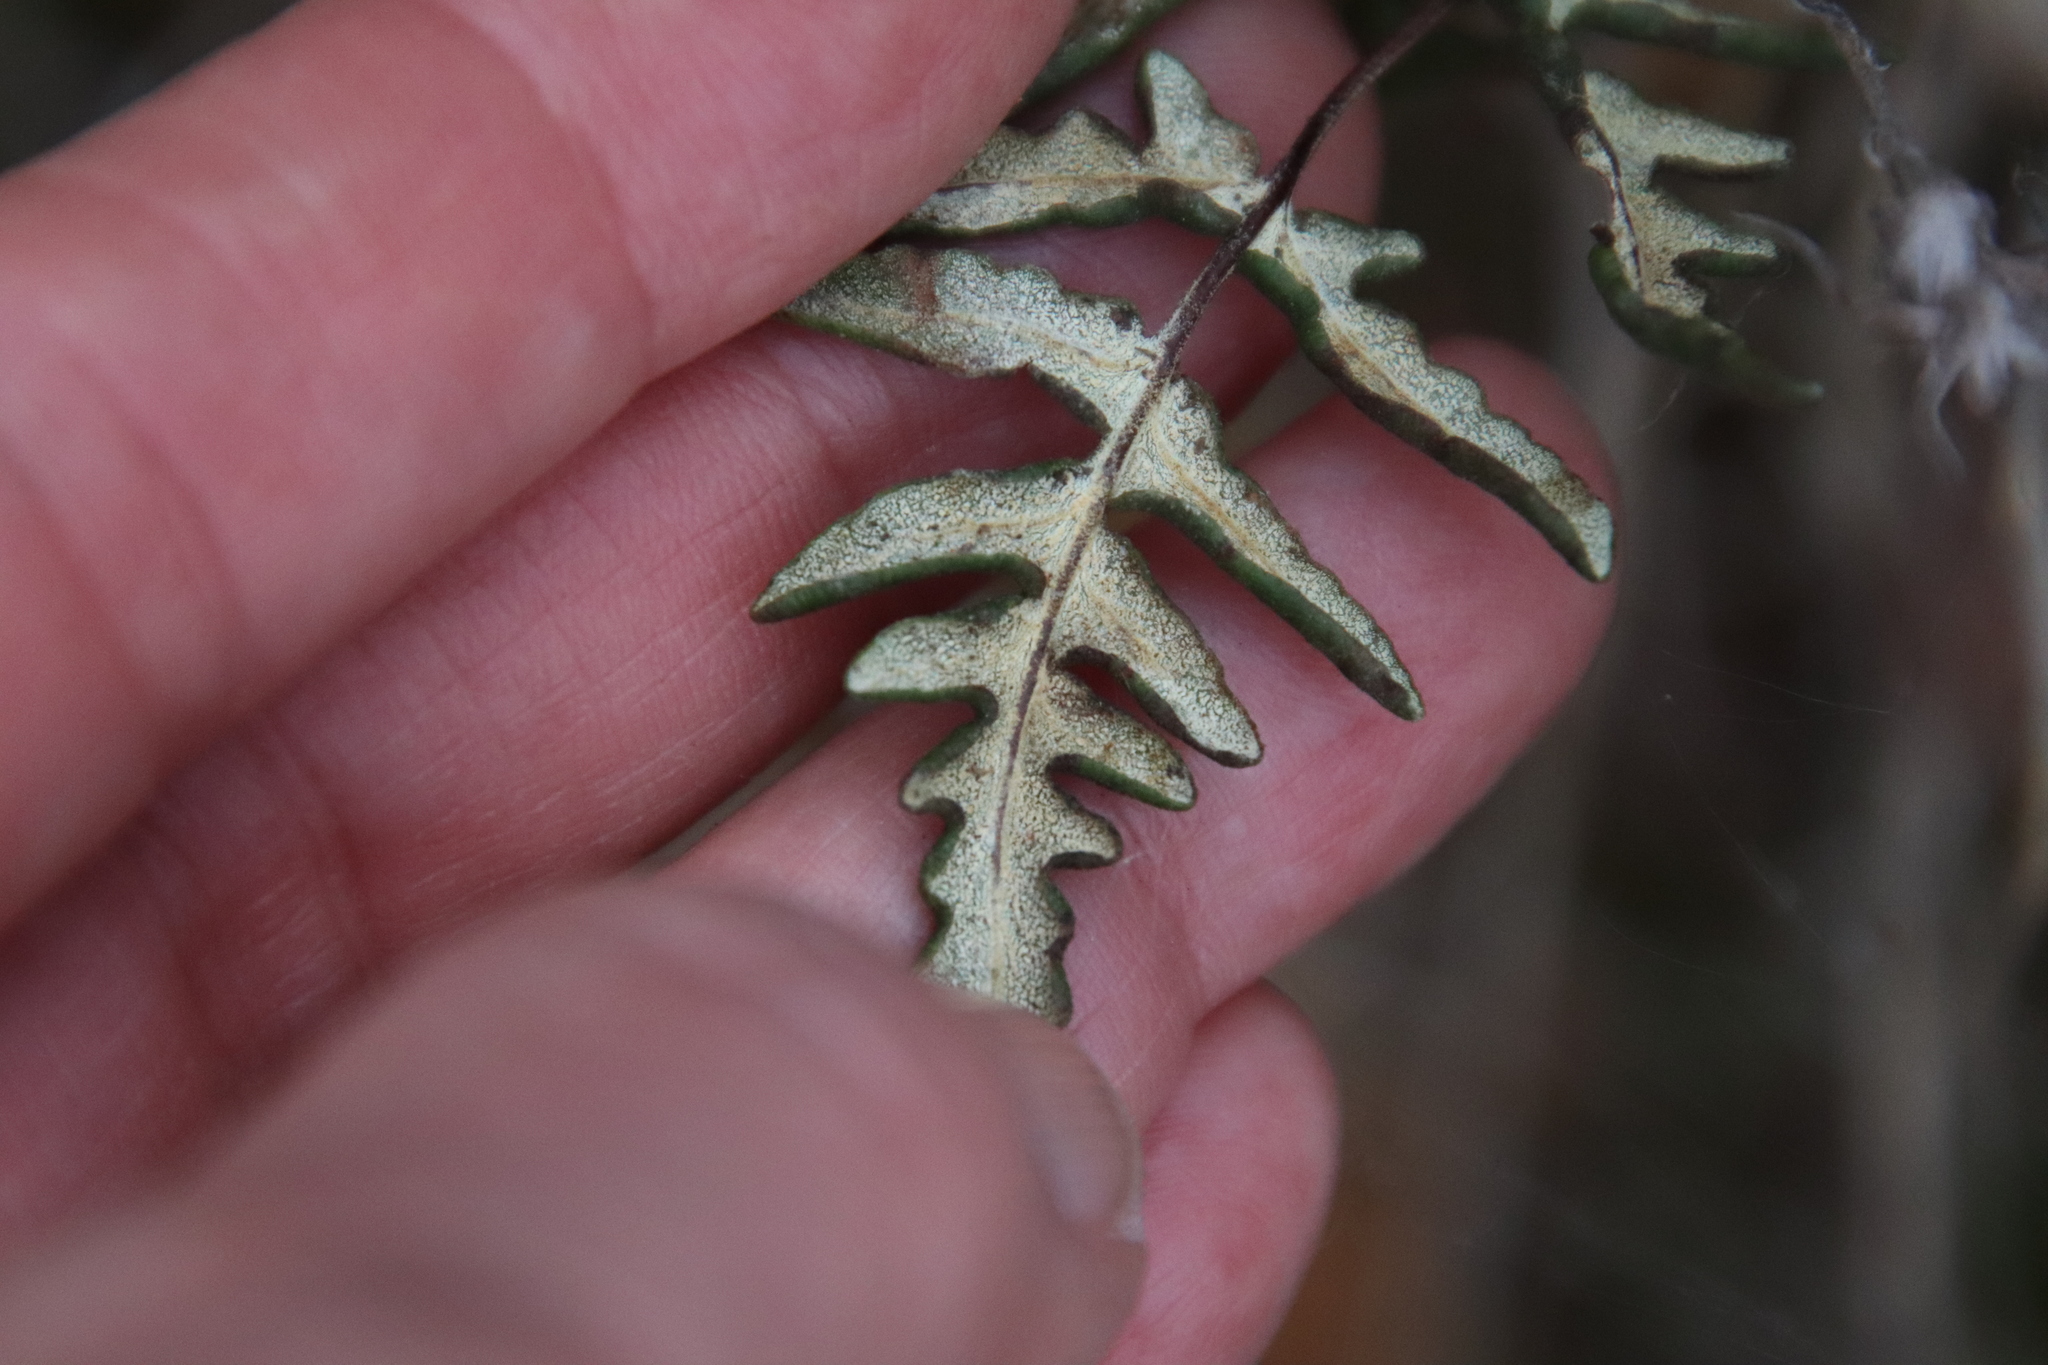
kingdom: Plantae
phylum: Tracheophyta
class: Polypodiopsida
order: Polypodiales
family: Pteridaceae
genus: Pentagramma
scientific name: Pentagramma viscosa
